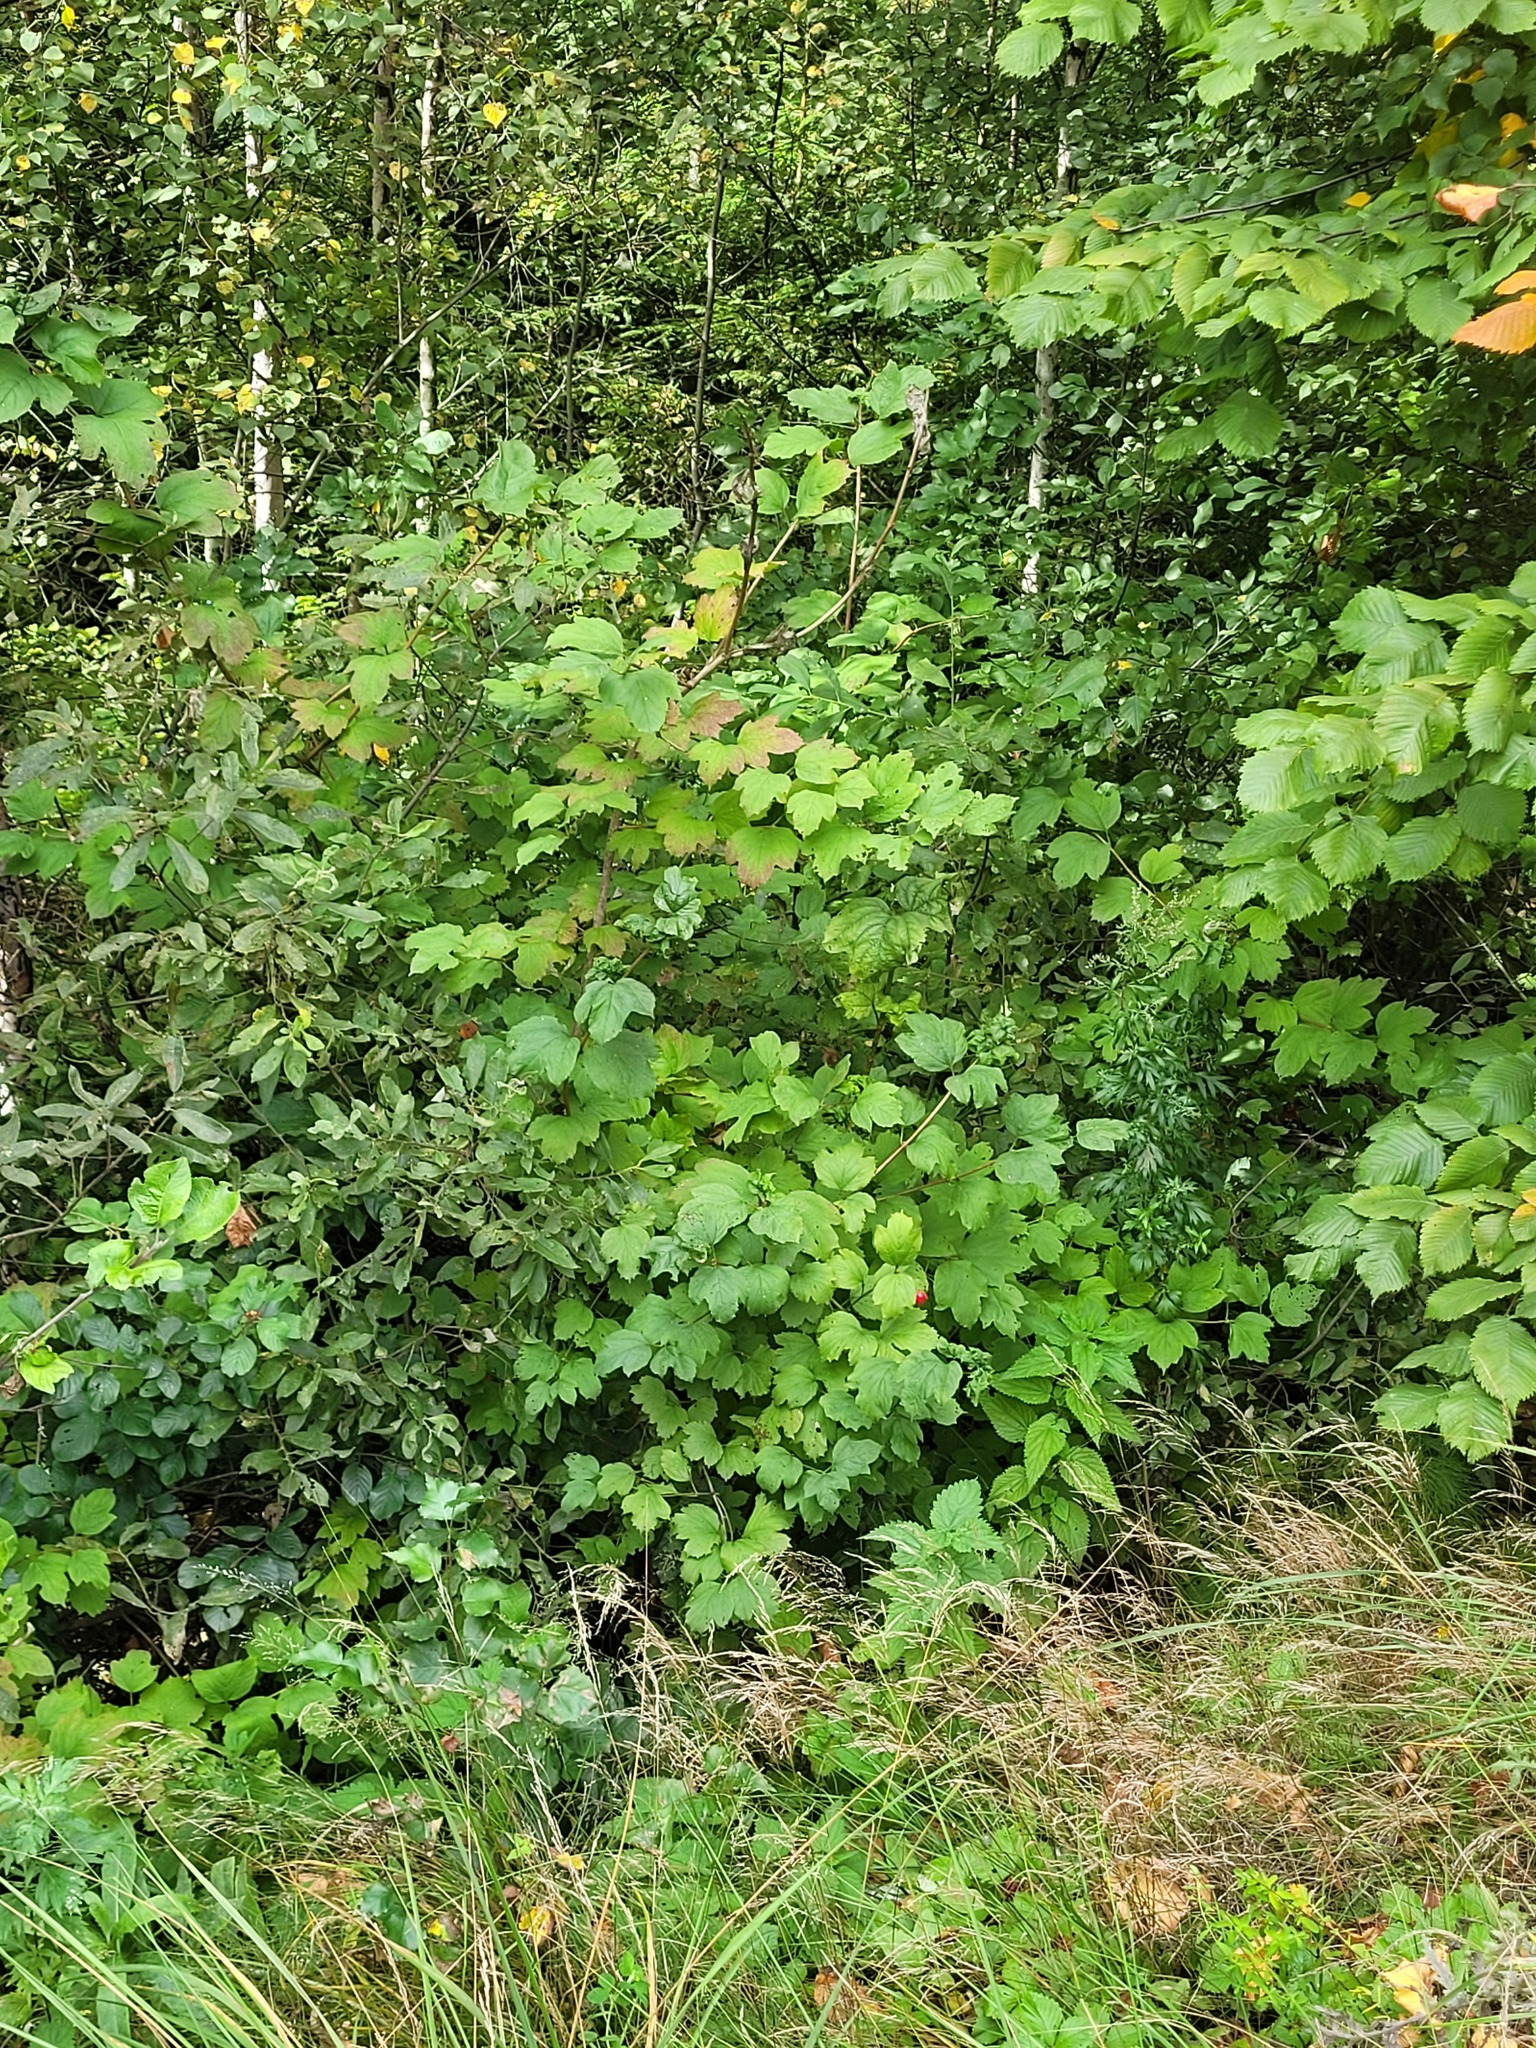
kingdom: Plantae
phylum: Tracheophyta
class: Magnoliopsida
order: Dipsacales
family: Viburnaceae
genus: Viburnum
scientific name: Viburnum opulus
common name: Guelder-rose
